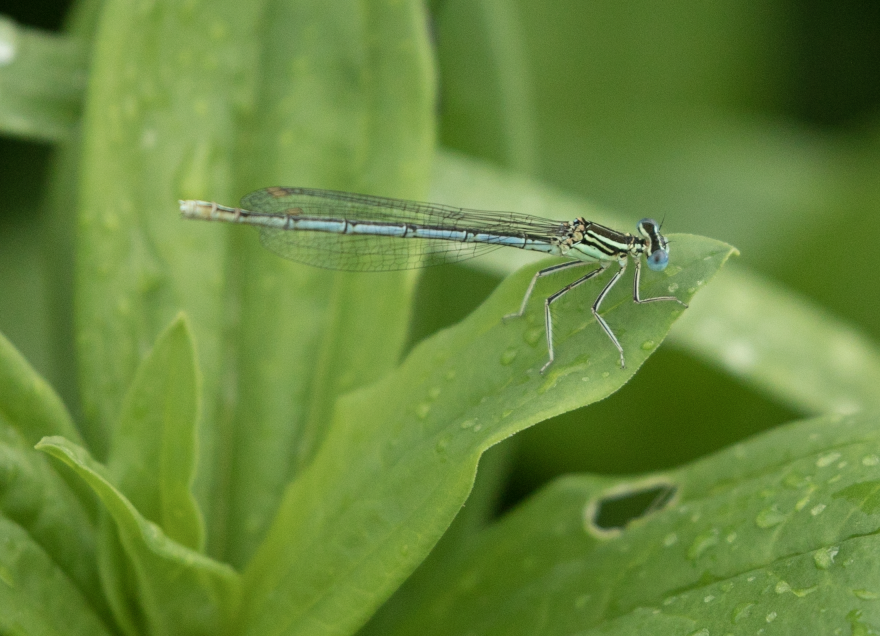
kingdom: Animalia
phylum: Arthropoda
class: Insecta
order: Odonata
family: Platycnemididae
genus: Platycnemis
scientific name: Platycnemis pennipes
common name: White-legged damselfly
